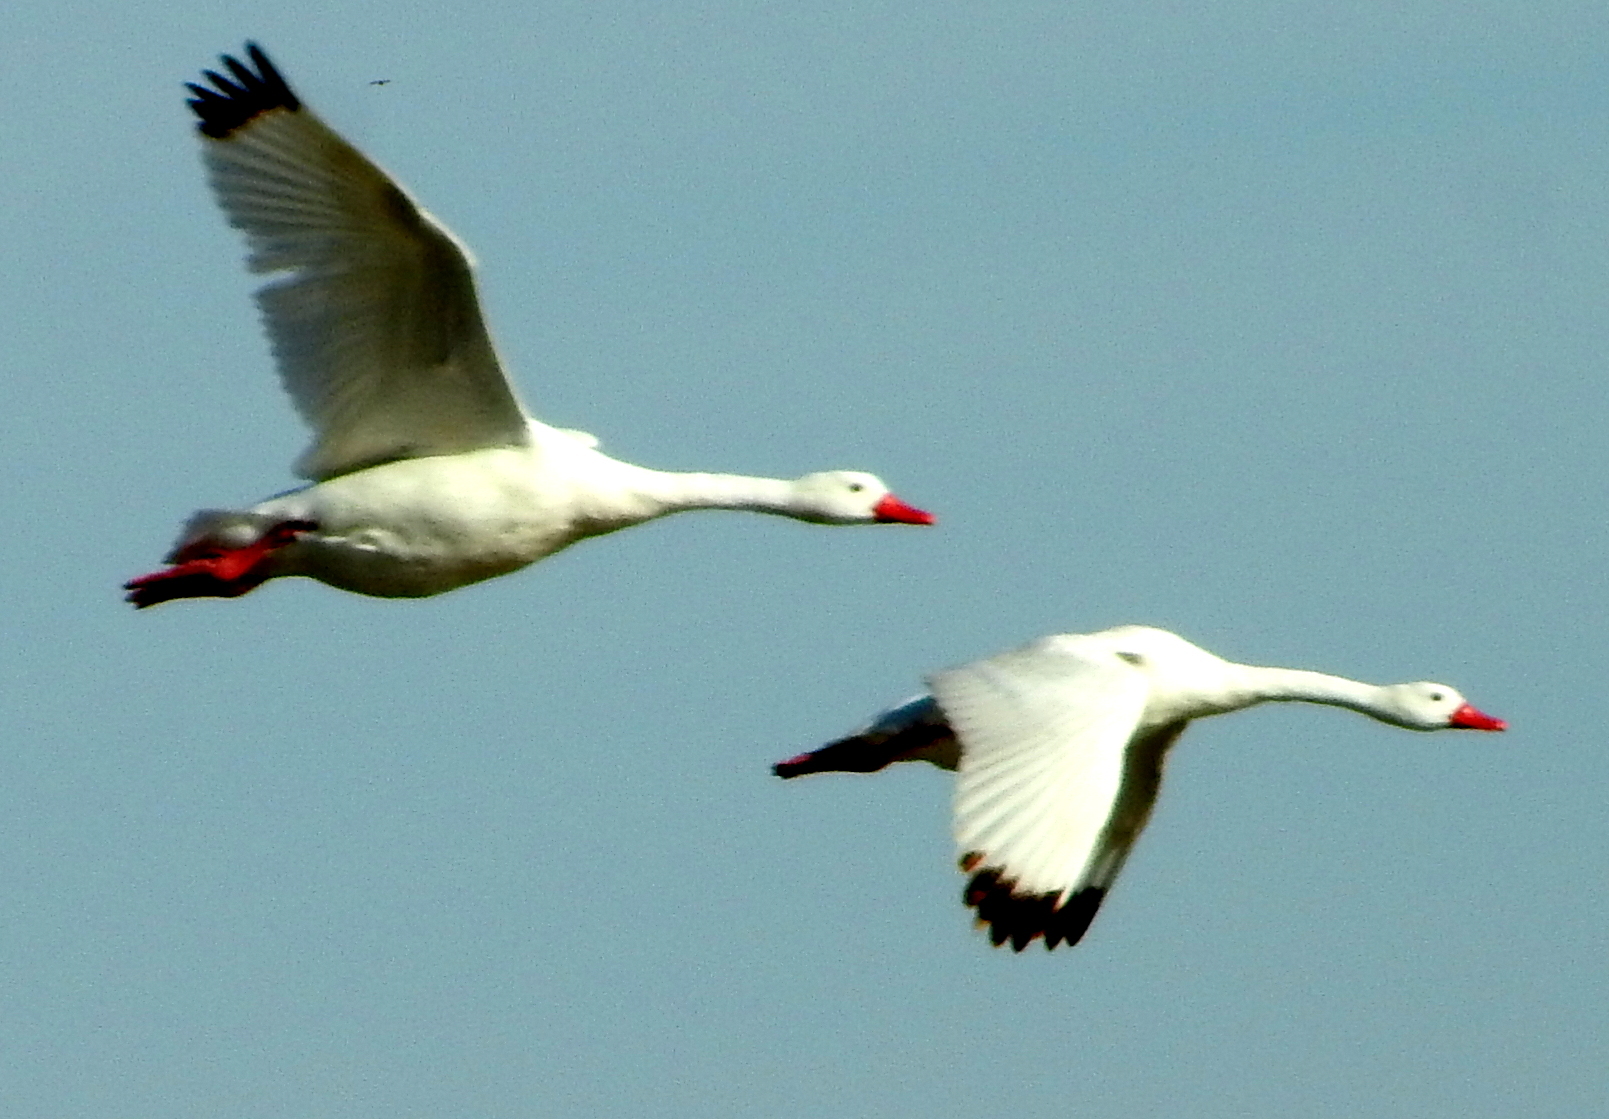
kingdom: Animalia
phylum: Chordata
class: Aves
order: Anseriformes
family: Anatidae
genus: Coscoroba
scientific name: Coscoroba coscoroba
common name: Coscoroba swan
